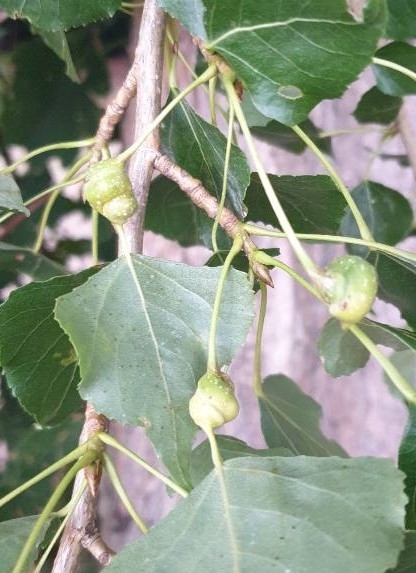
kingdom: Animalia
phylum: Arthropoda
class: Insecta
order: Hemiptera
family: Aphididae
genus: Pemphigus
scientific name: Pemphigus spyrothecae
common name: Aphid
